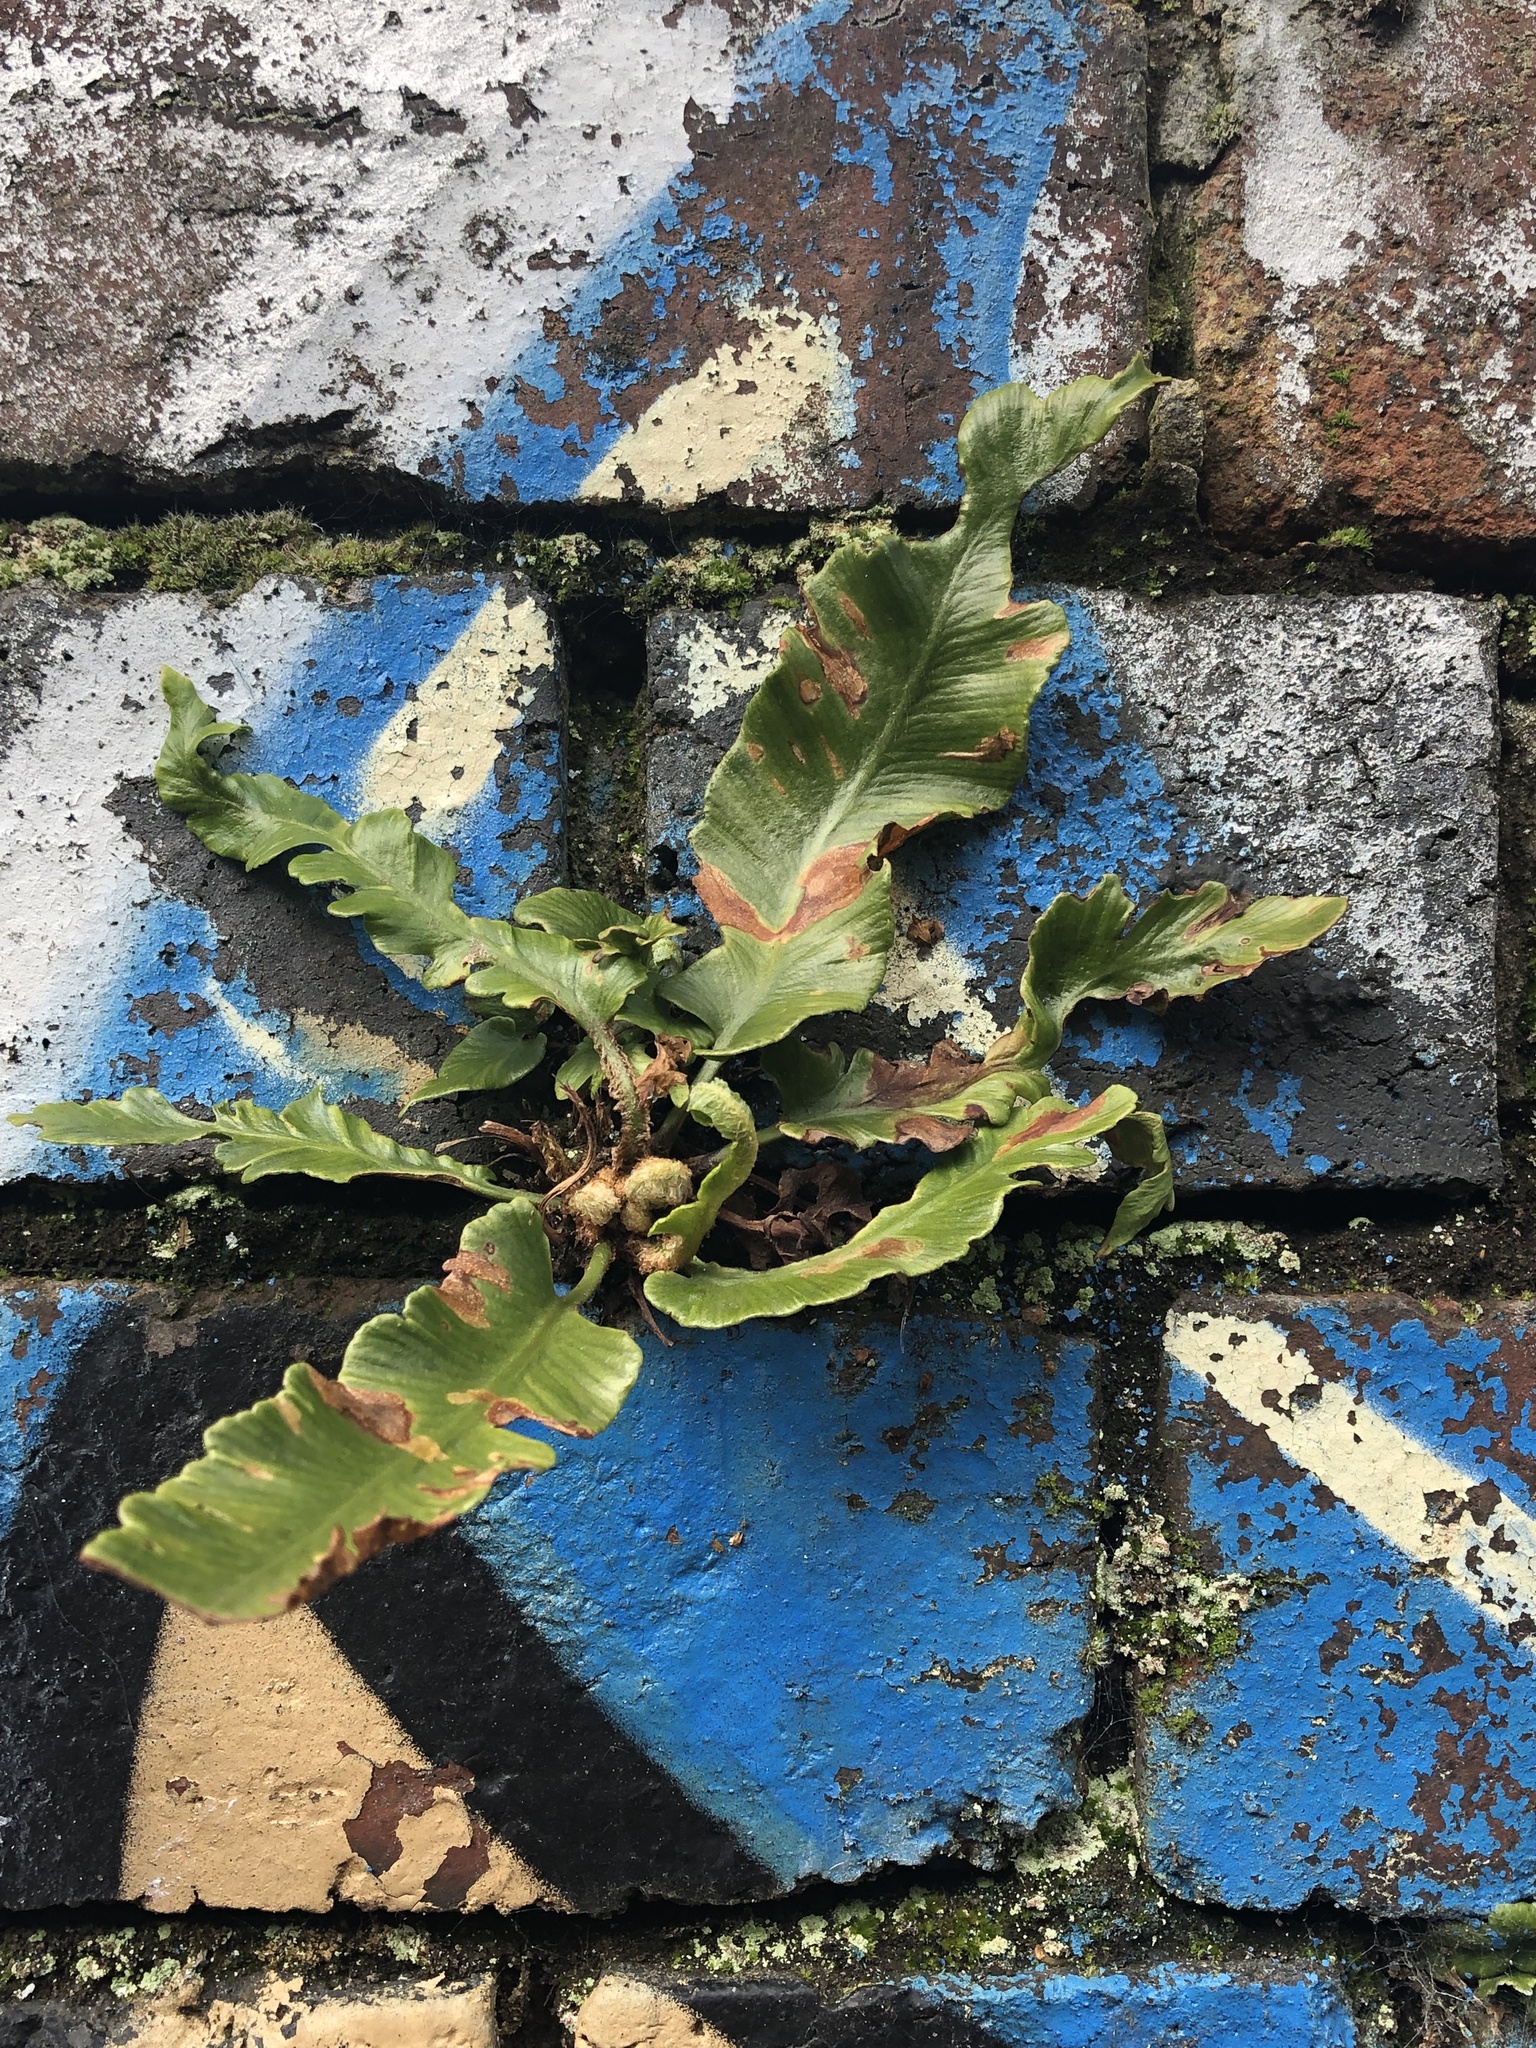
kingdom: Plantae
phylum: Tracheophyta
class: Polypodiopsida
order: Polypodiales
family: Aspleniaceae
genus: Asplenium
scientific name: Asplenium scolopendrium
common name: Hart's-tongue fern
